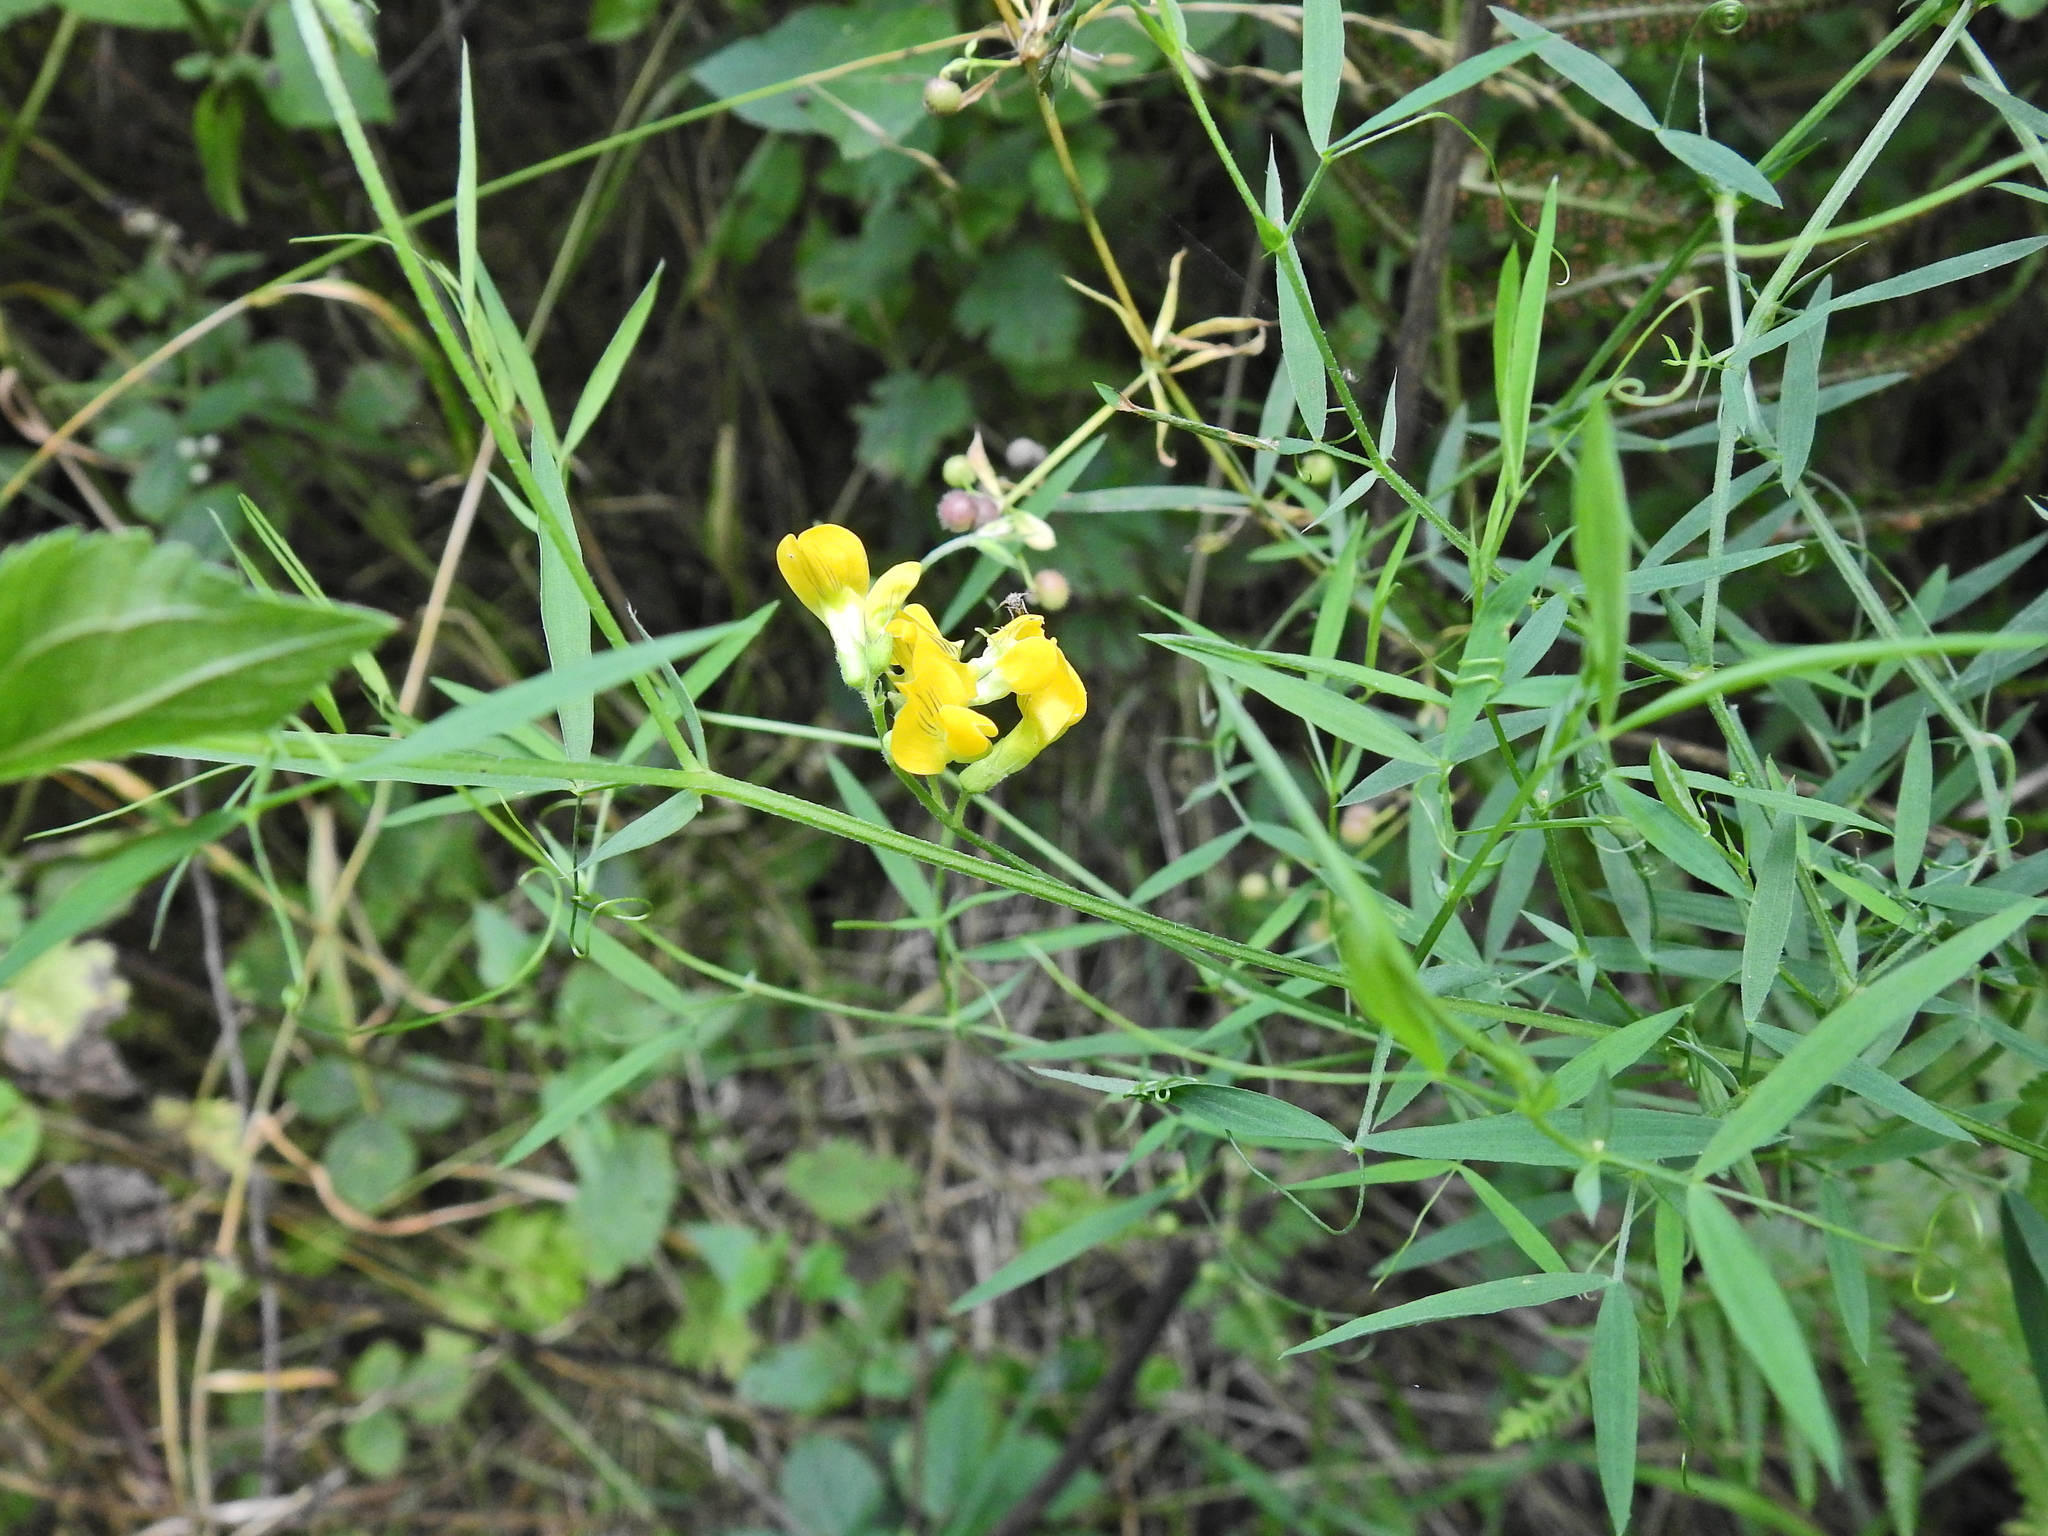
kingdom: Plantae
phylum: Tracheophyta
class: Magnoliopsida
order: Fabales
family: Fabaceae
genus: Lathyrus
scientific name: Lathyrus pratensis
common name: Meadow vetchling
